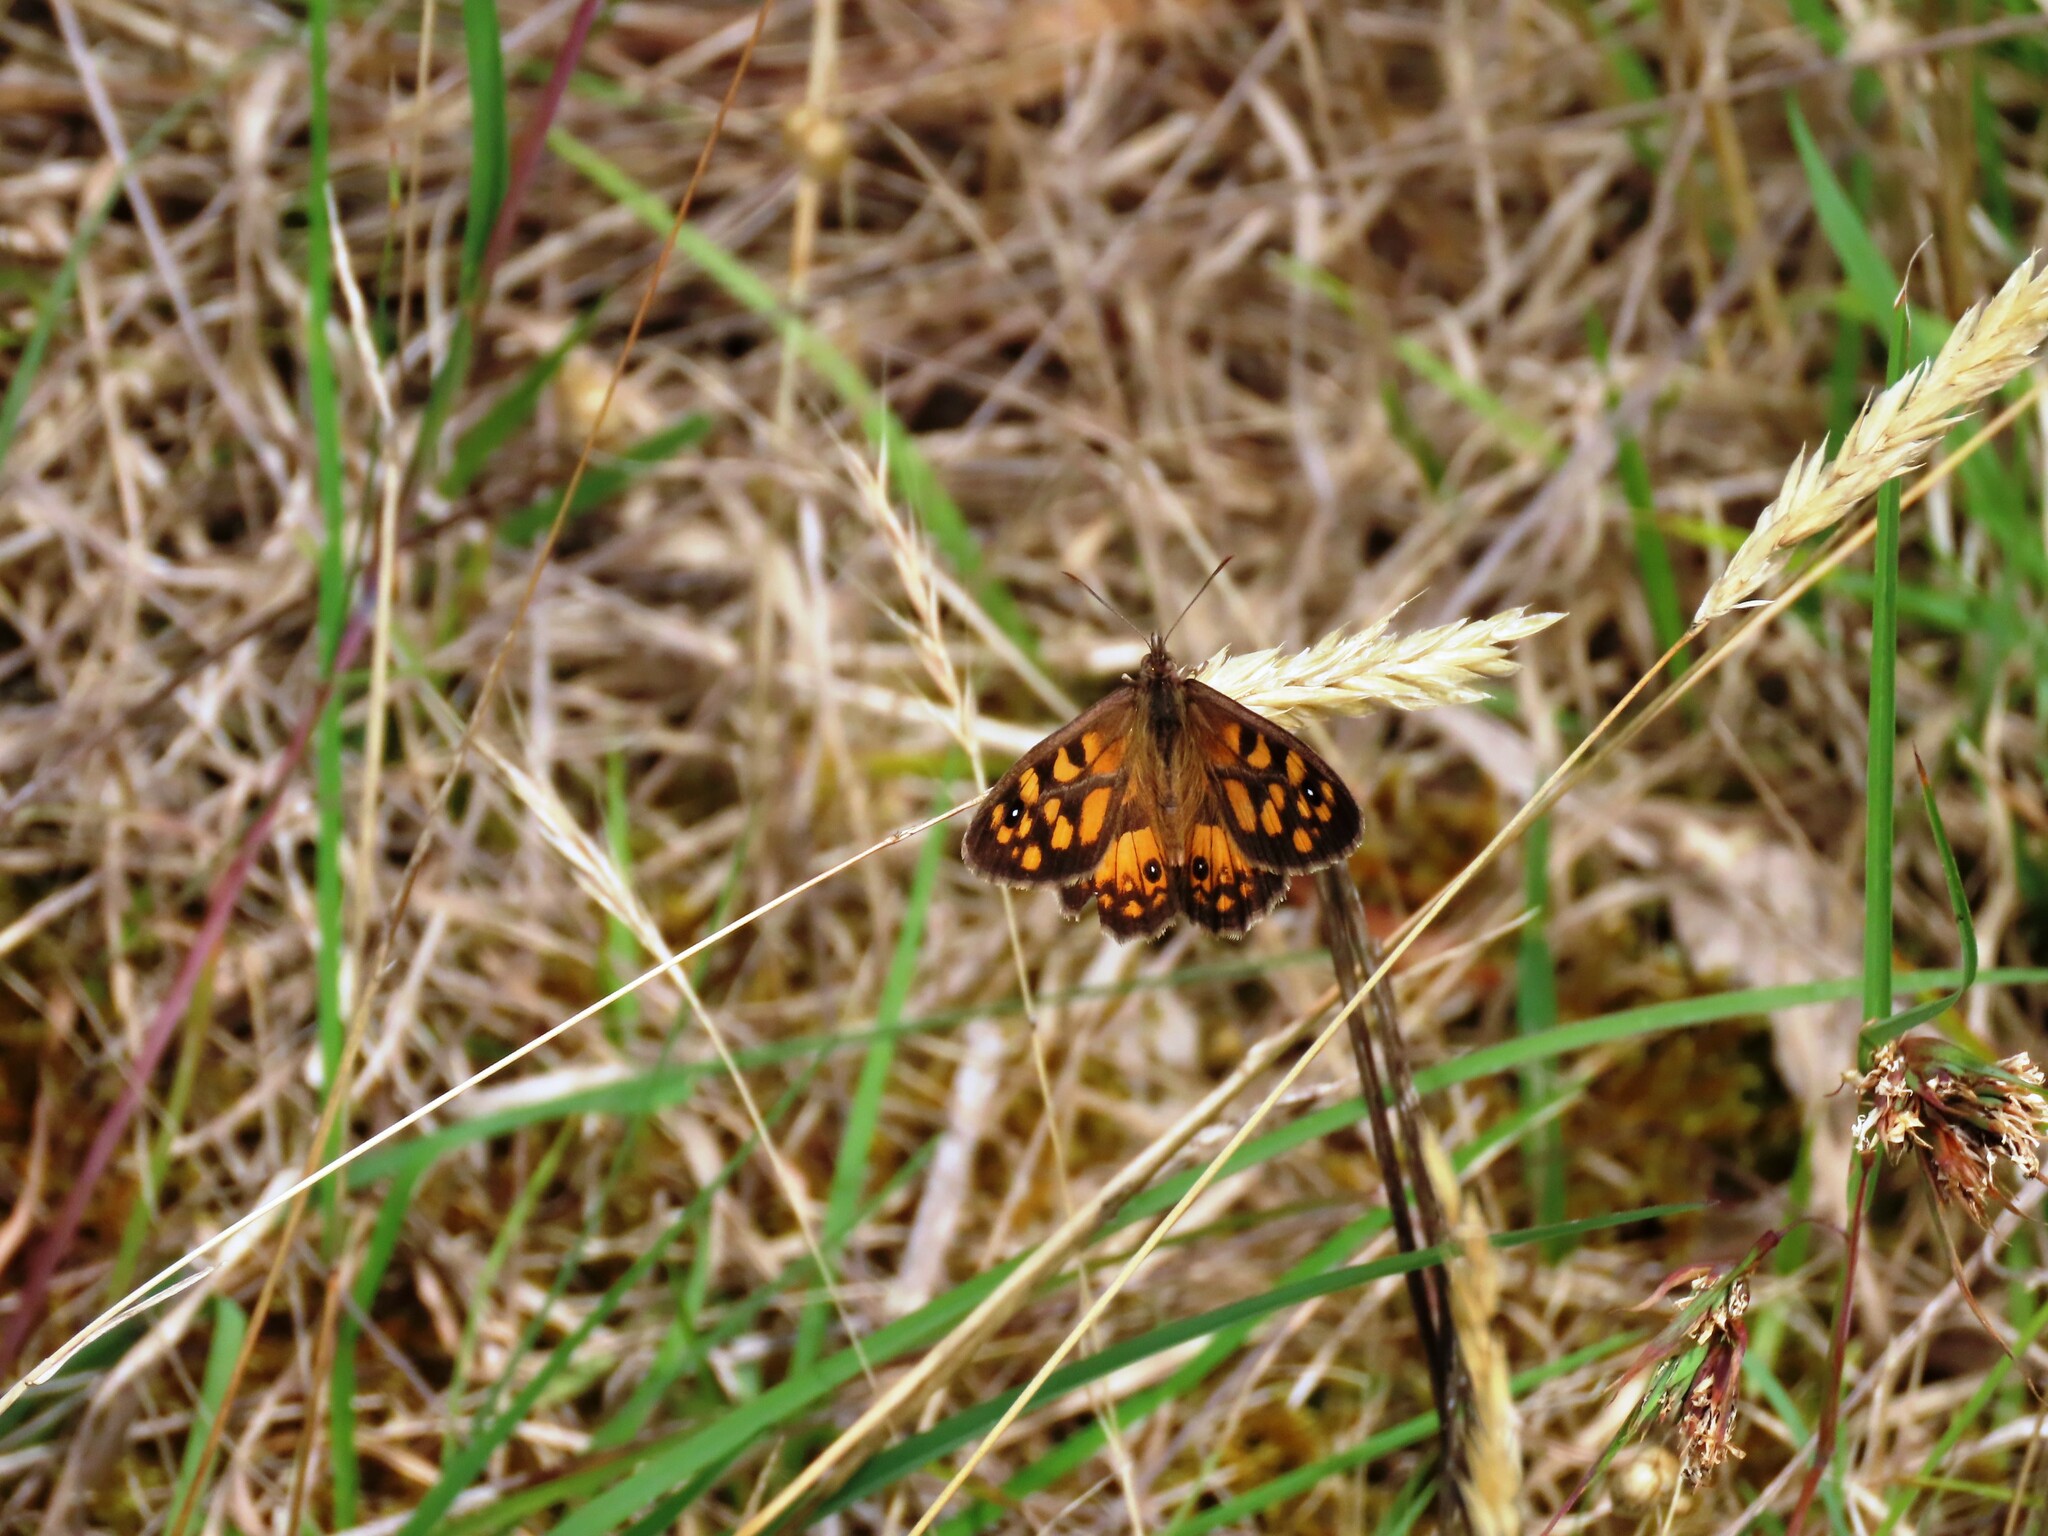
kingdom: Animalia
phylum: Arthropoda
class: Insecta
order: Lepidoptera
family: Nymphalidae
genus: Geitoneura
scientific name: Geitoneura klugii
